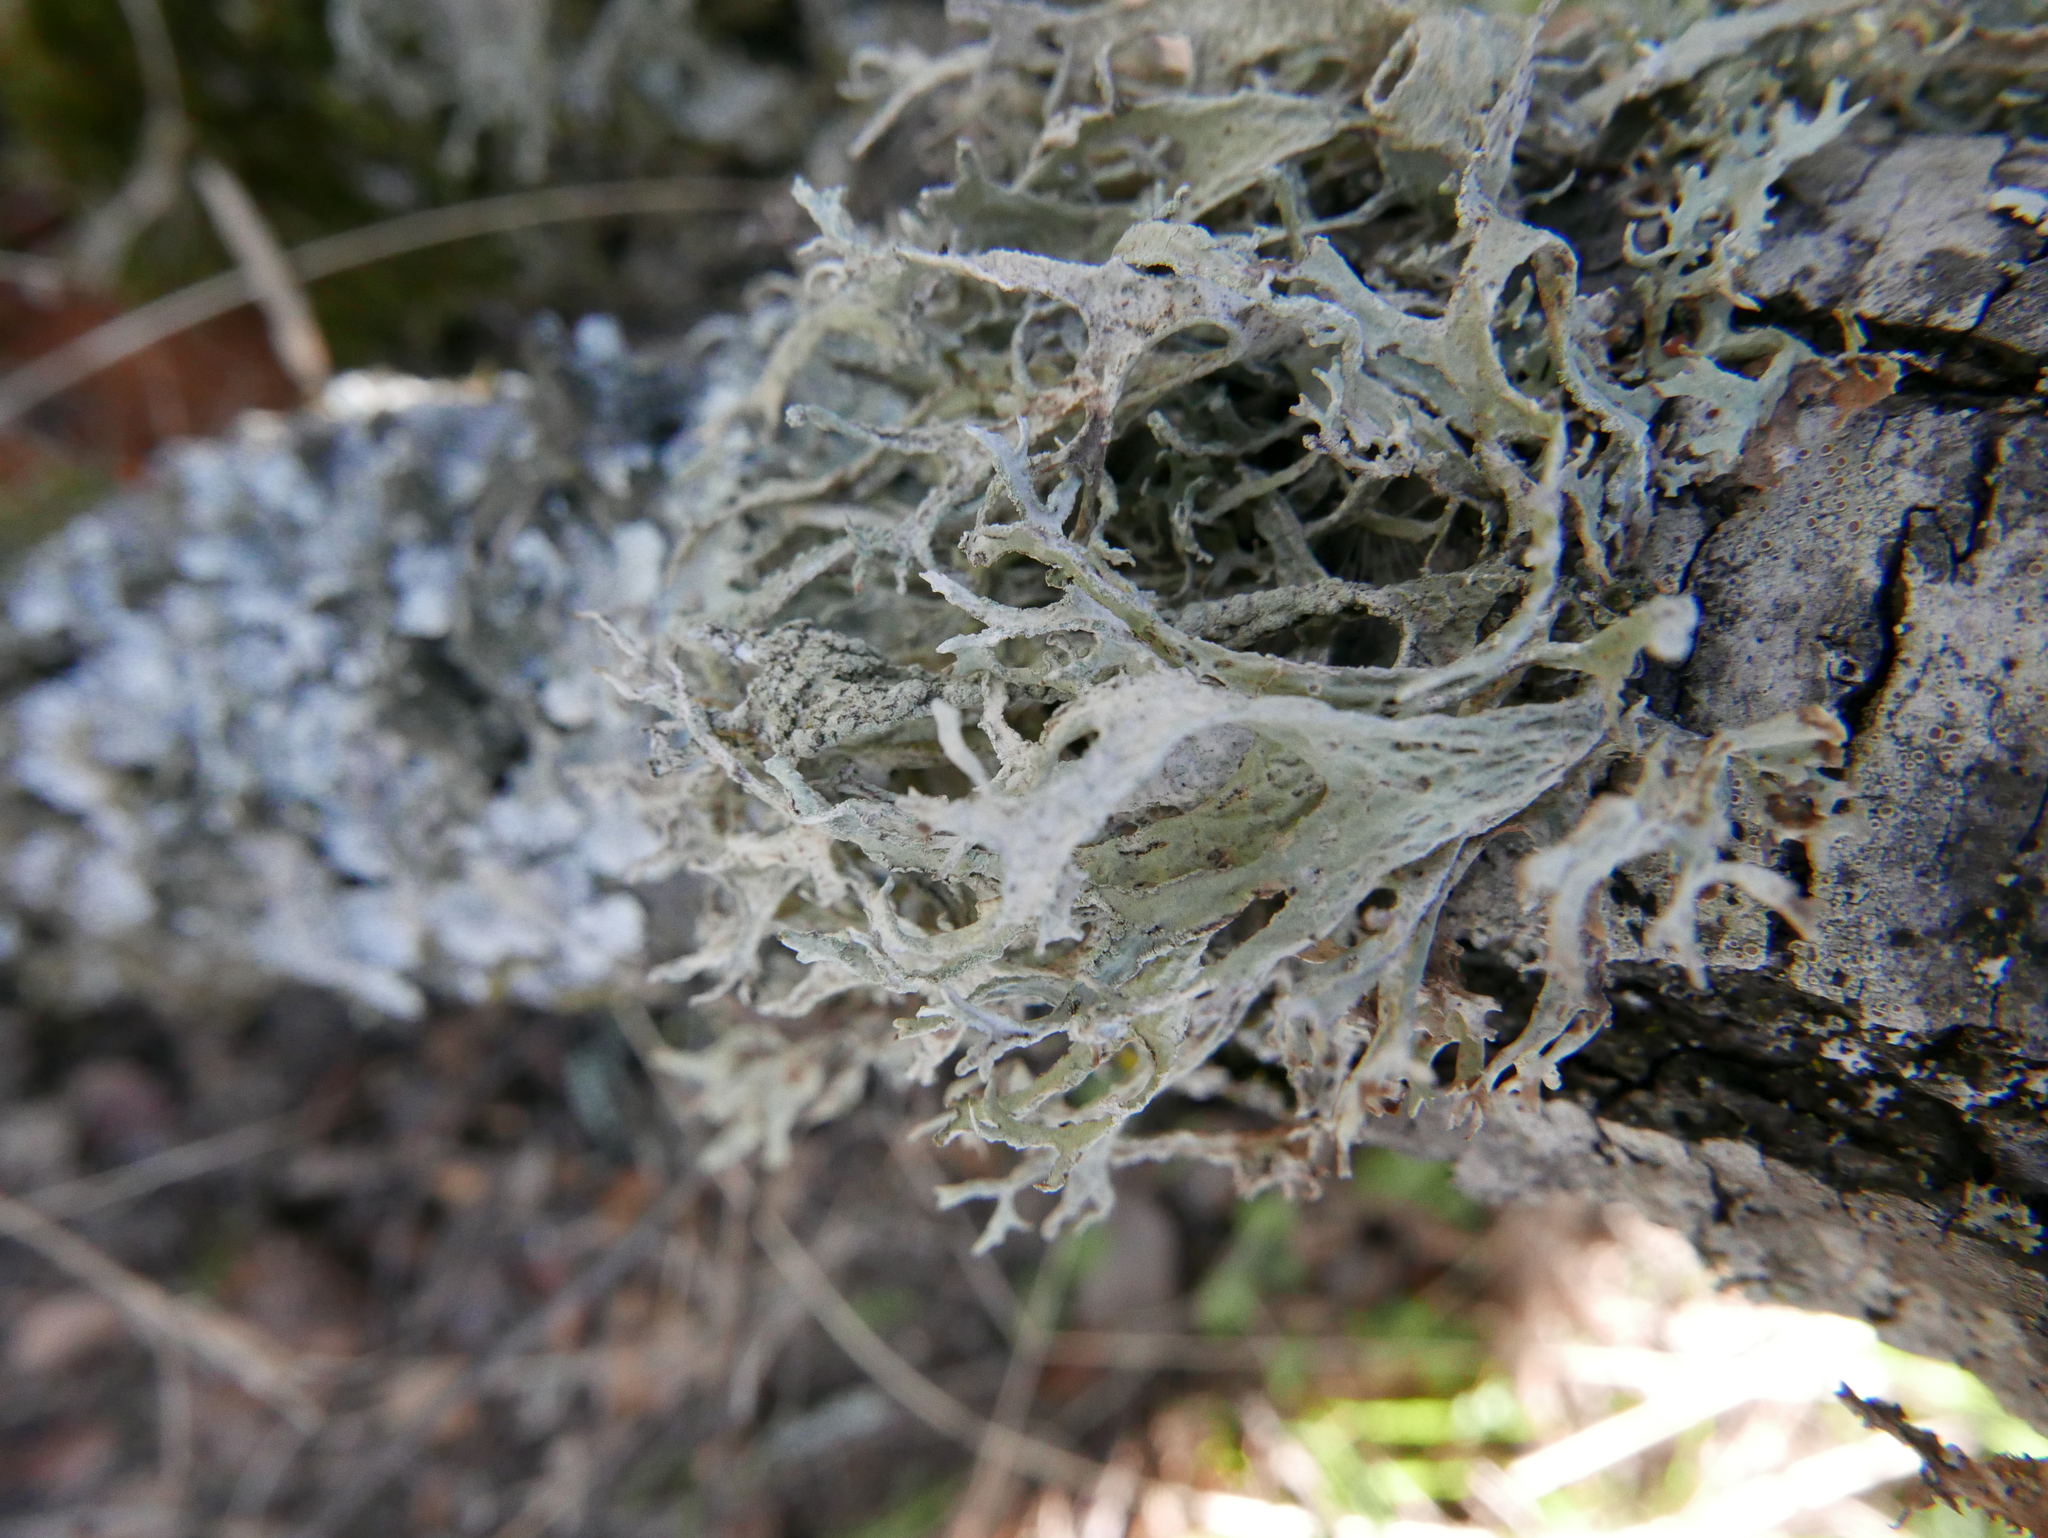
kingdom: Fungi
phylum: Ascomycota
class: Lecanoromycetes
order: Lecanorales
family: Parmeliaceae
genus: Evernia
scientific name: Evernia prunastri
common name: Oak moss
